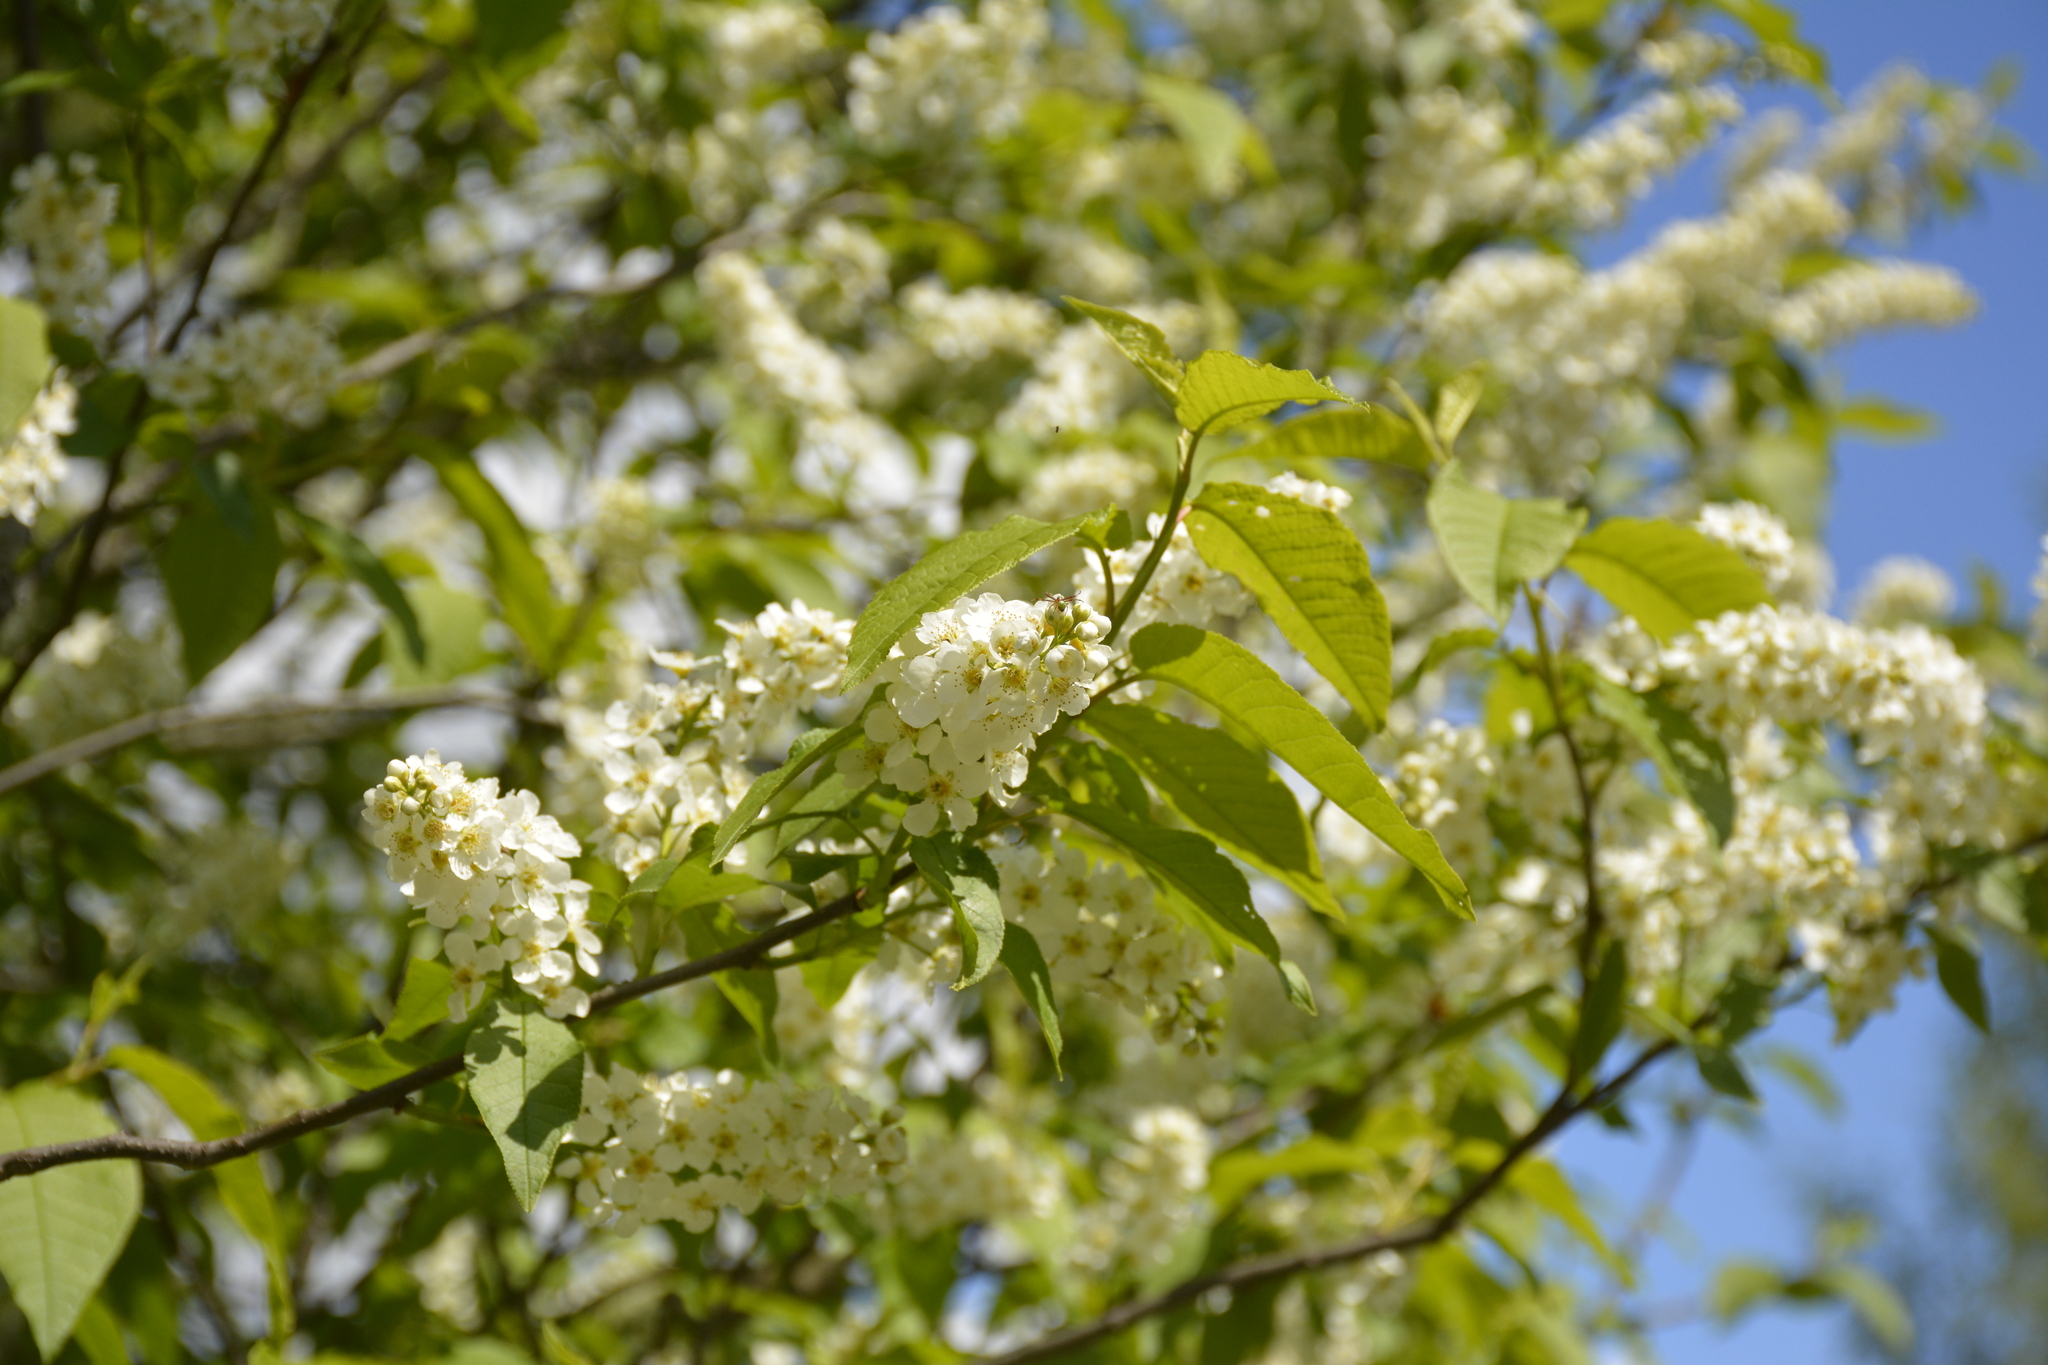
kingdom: Plantae
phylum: Tracheophyta
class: Magnoliopsida
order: Rosales
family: Rosaceae
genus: Prunus
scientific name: Prunus padus
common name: Bird cherry
